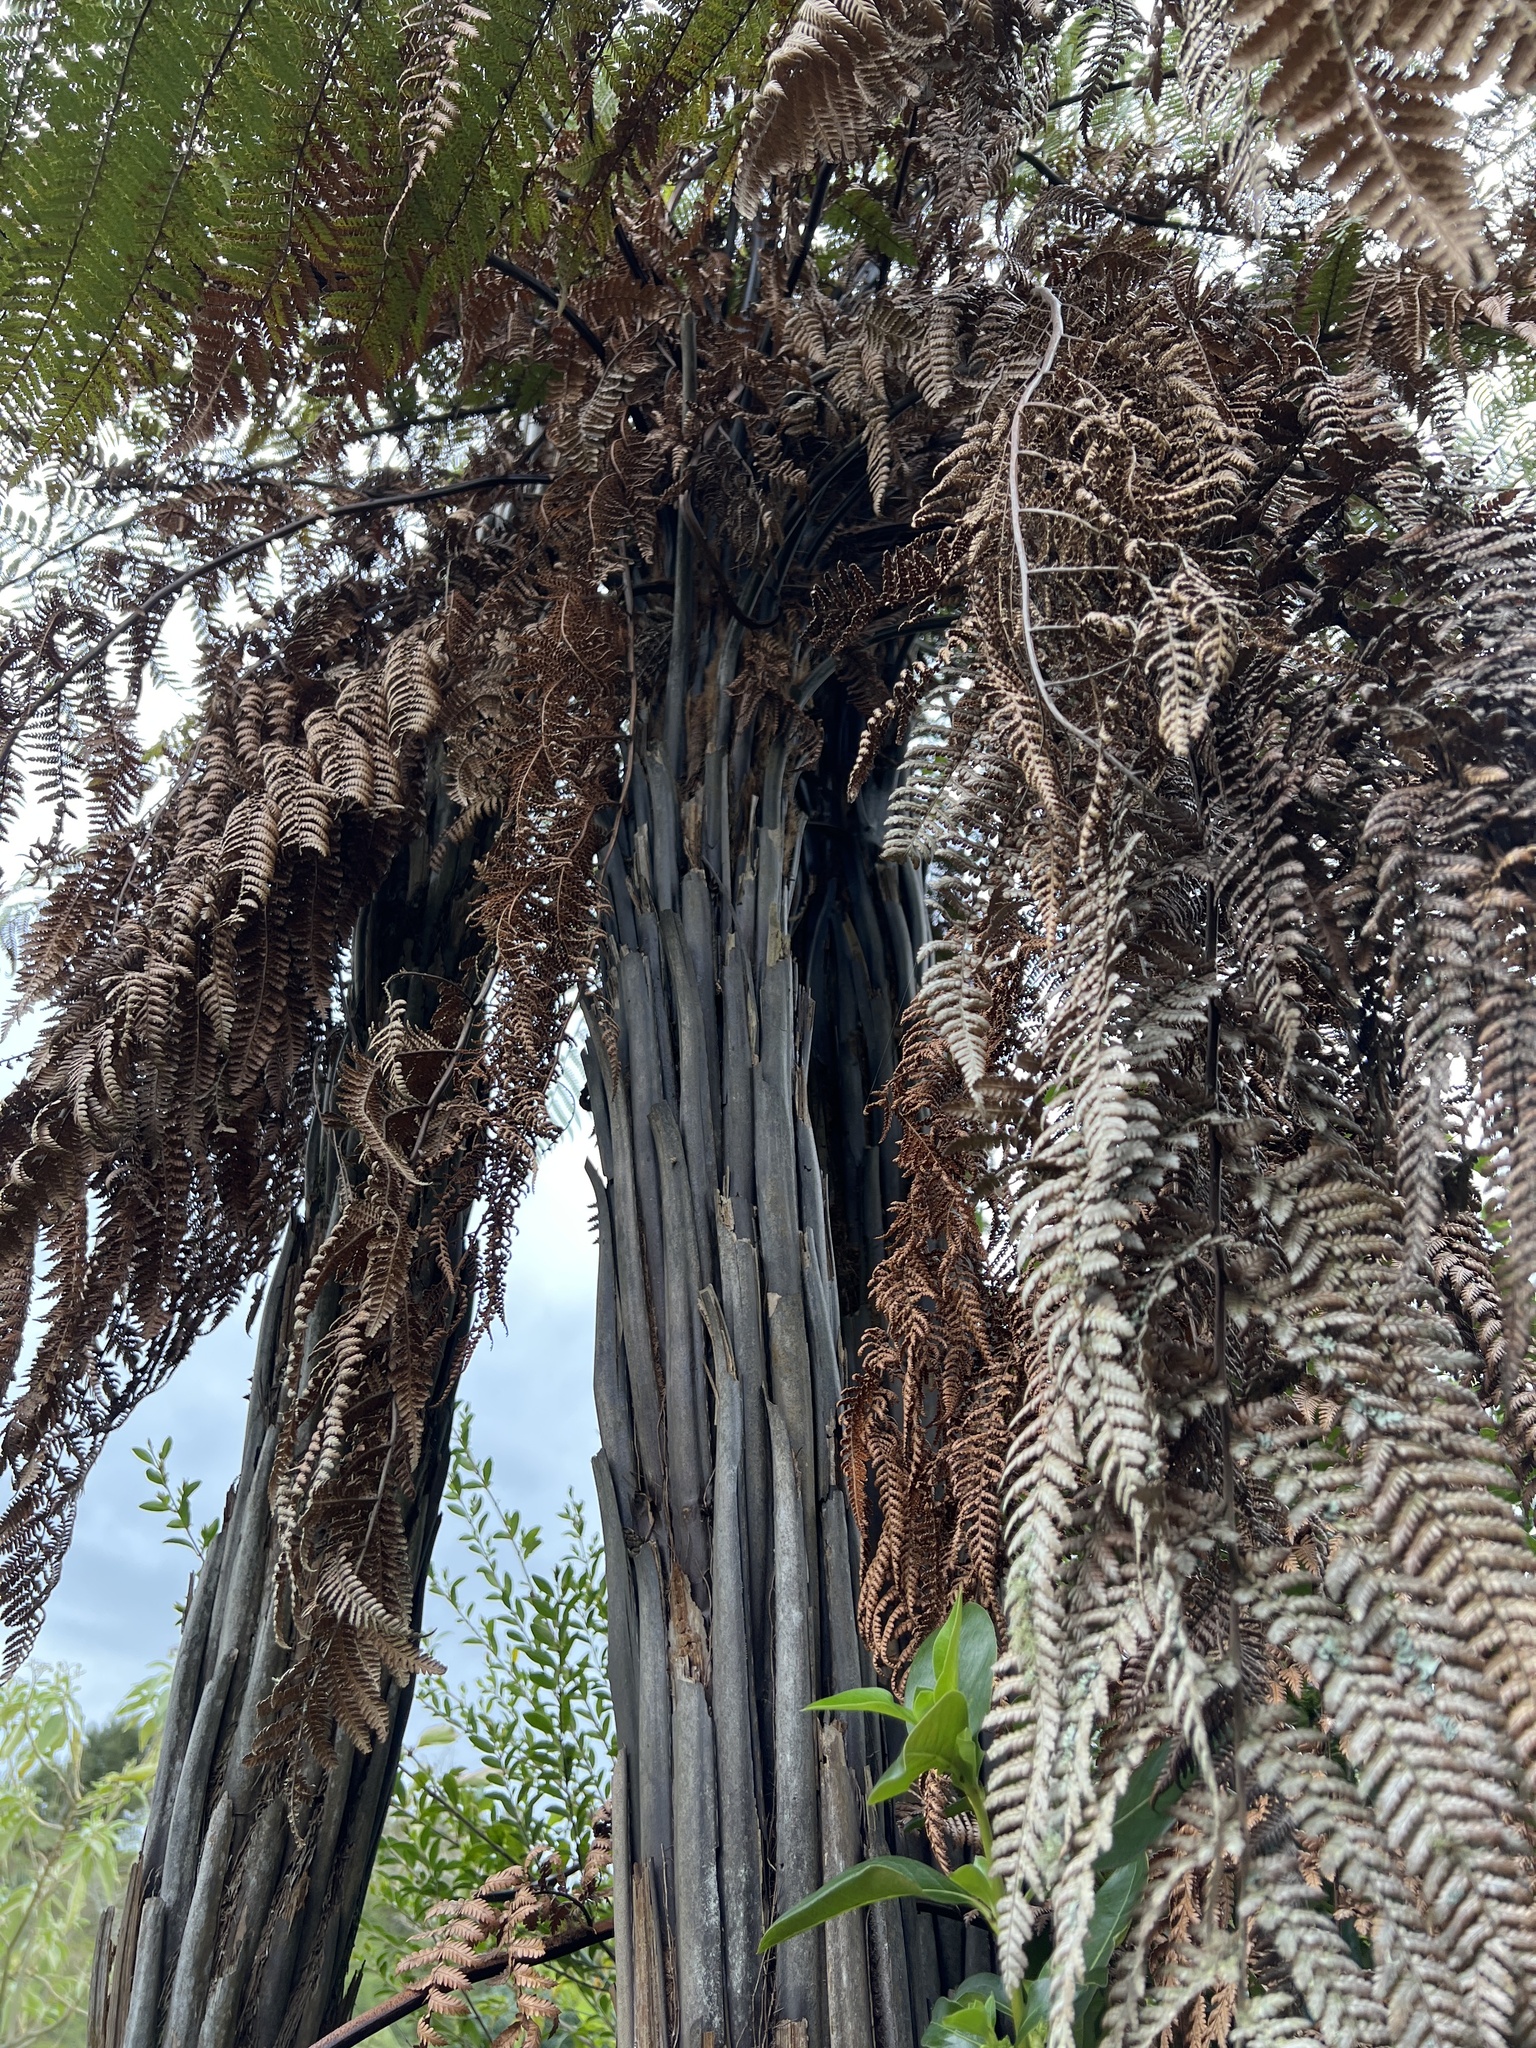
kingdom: Plantae
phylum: Tracheophyta
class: Polypodiopsida
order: Cyatheales
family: Dicksoniaceae
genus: Dicksonia
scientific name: Dicksonia squarrosa
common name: Hard treefern
